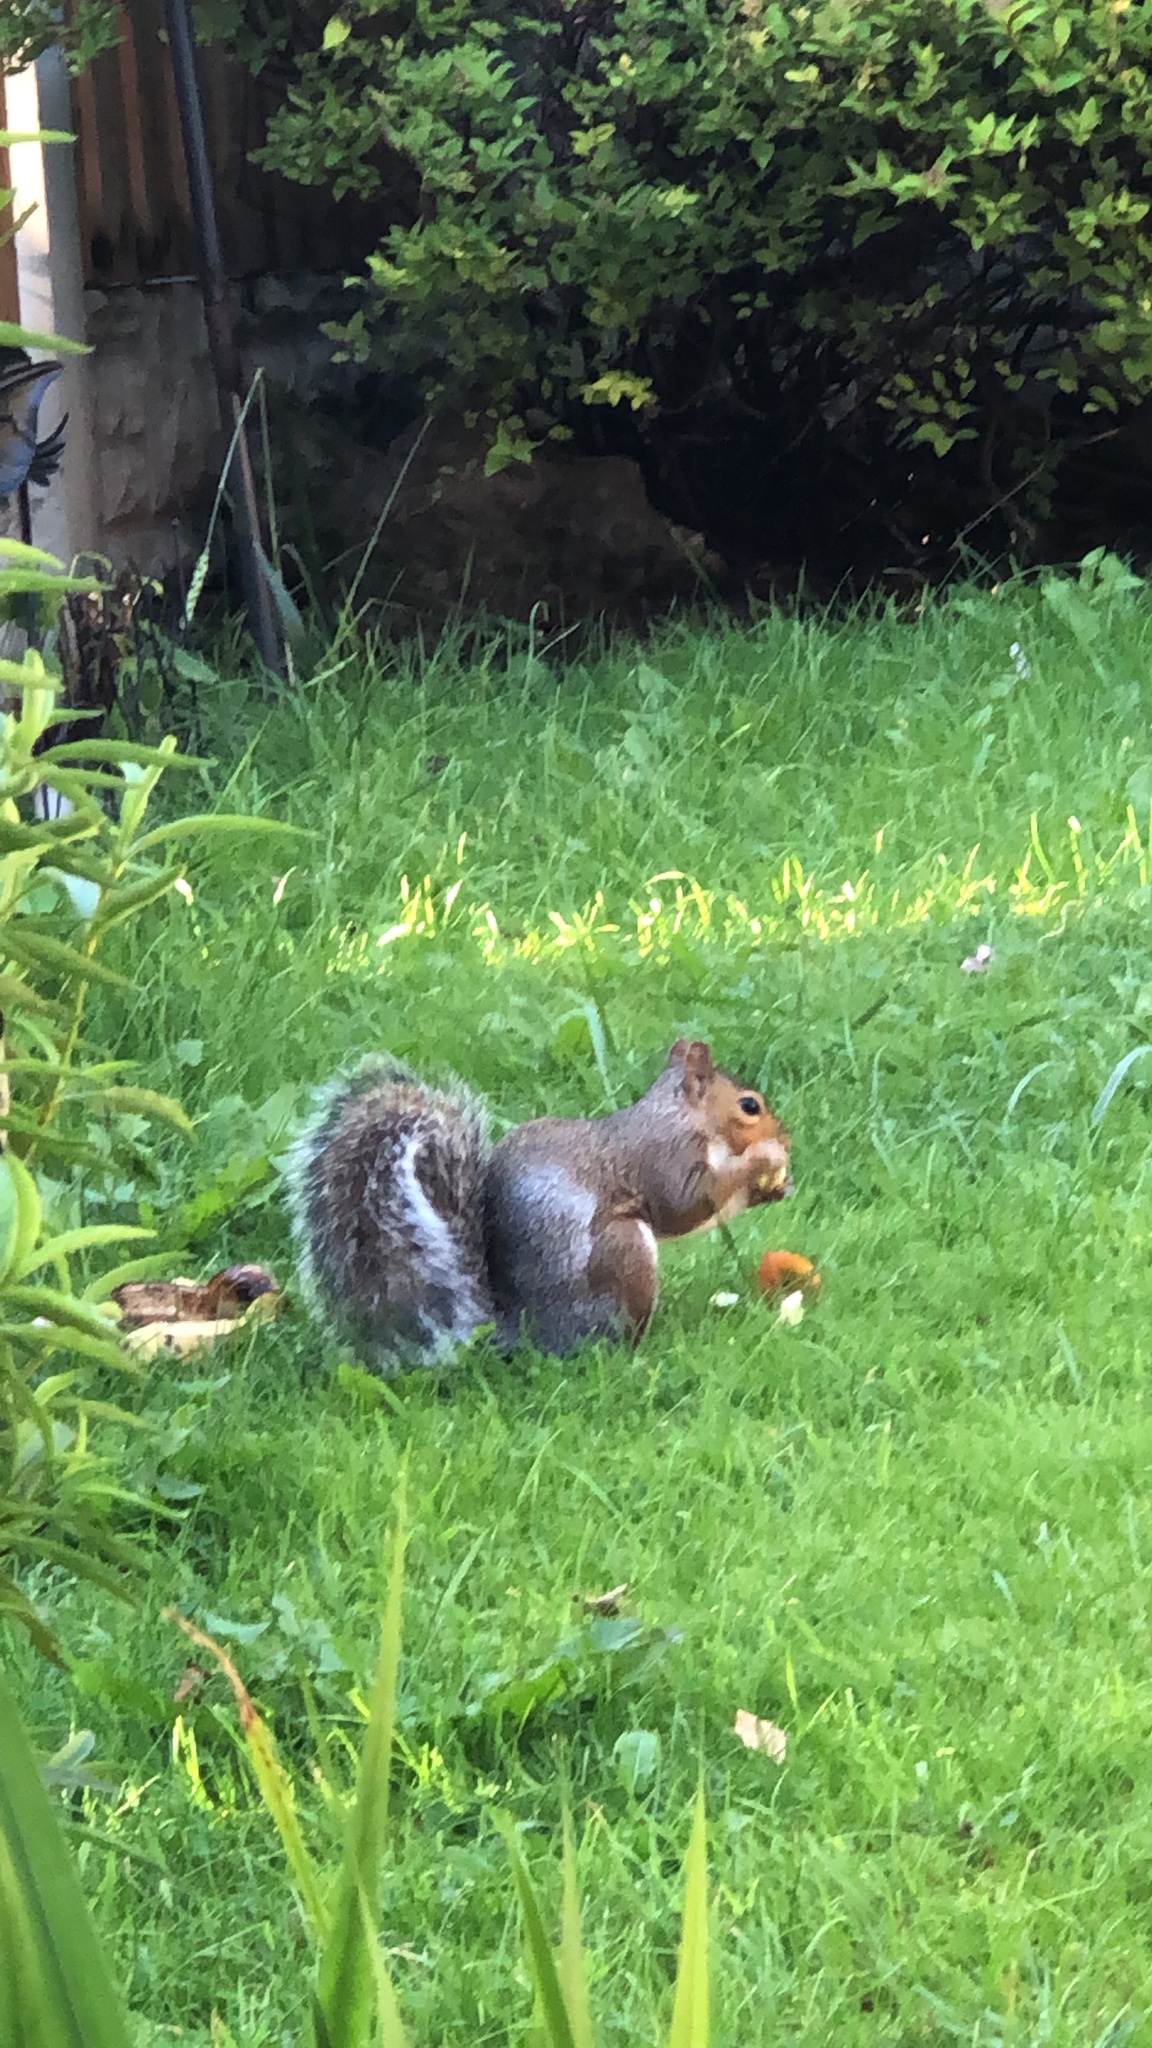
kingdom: Animalia
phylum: Chordata
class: Mammalia
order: Rodentia
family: Sciuridae
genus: Sciurus
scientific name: Sciurus carolinensis
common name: Eastern gray squirrel
